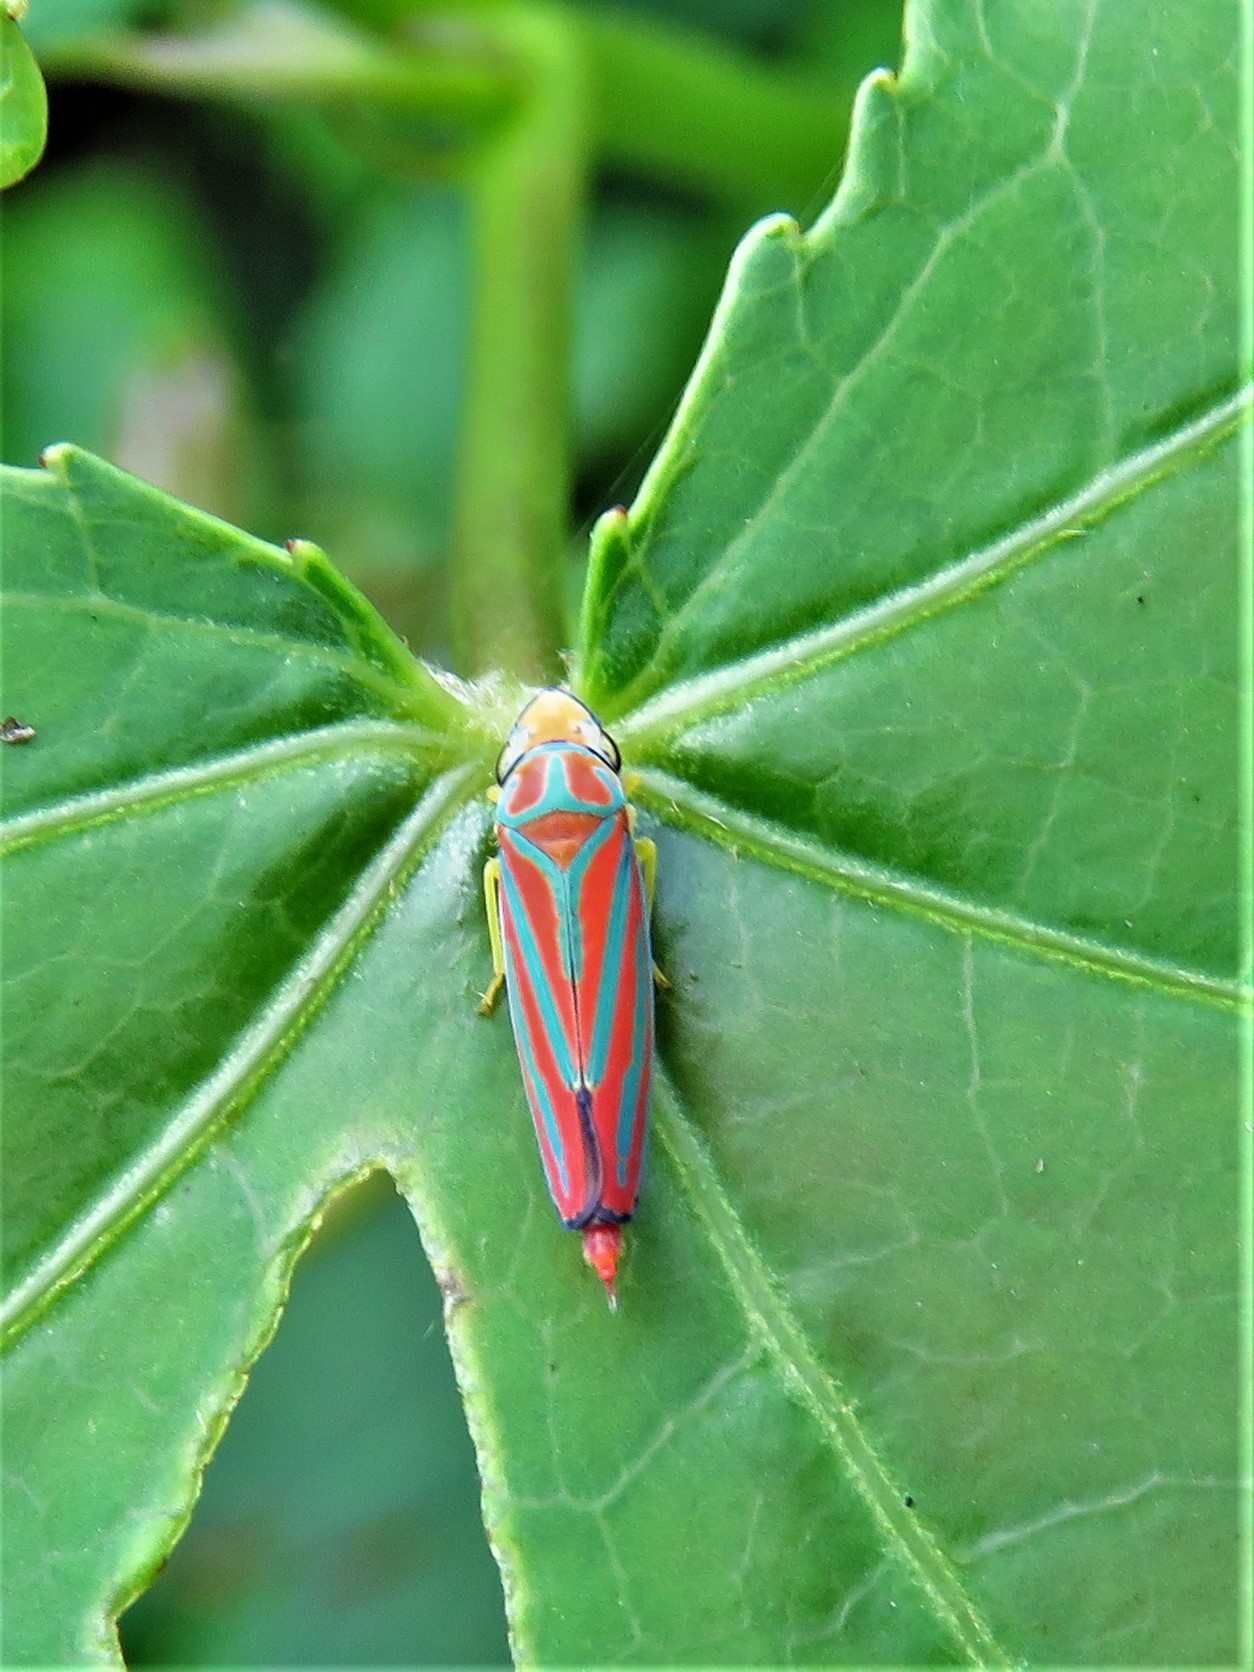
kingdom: Animalia
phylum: Arthropoda
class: Insecta
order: Hemiptera
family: Cicadellidae
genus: Graphocephala
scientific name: Graphocephala coccinea
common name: Candy-striped leafhopper
